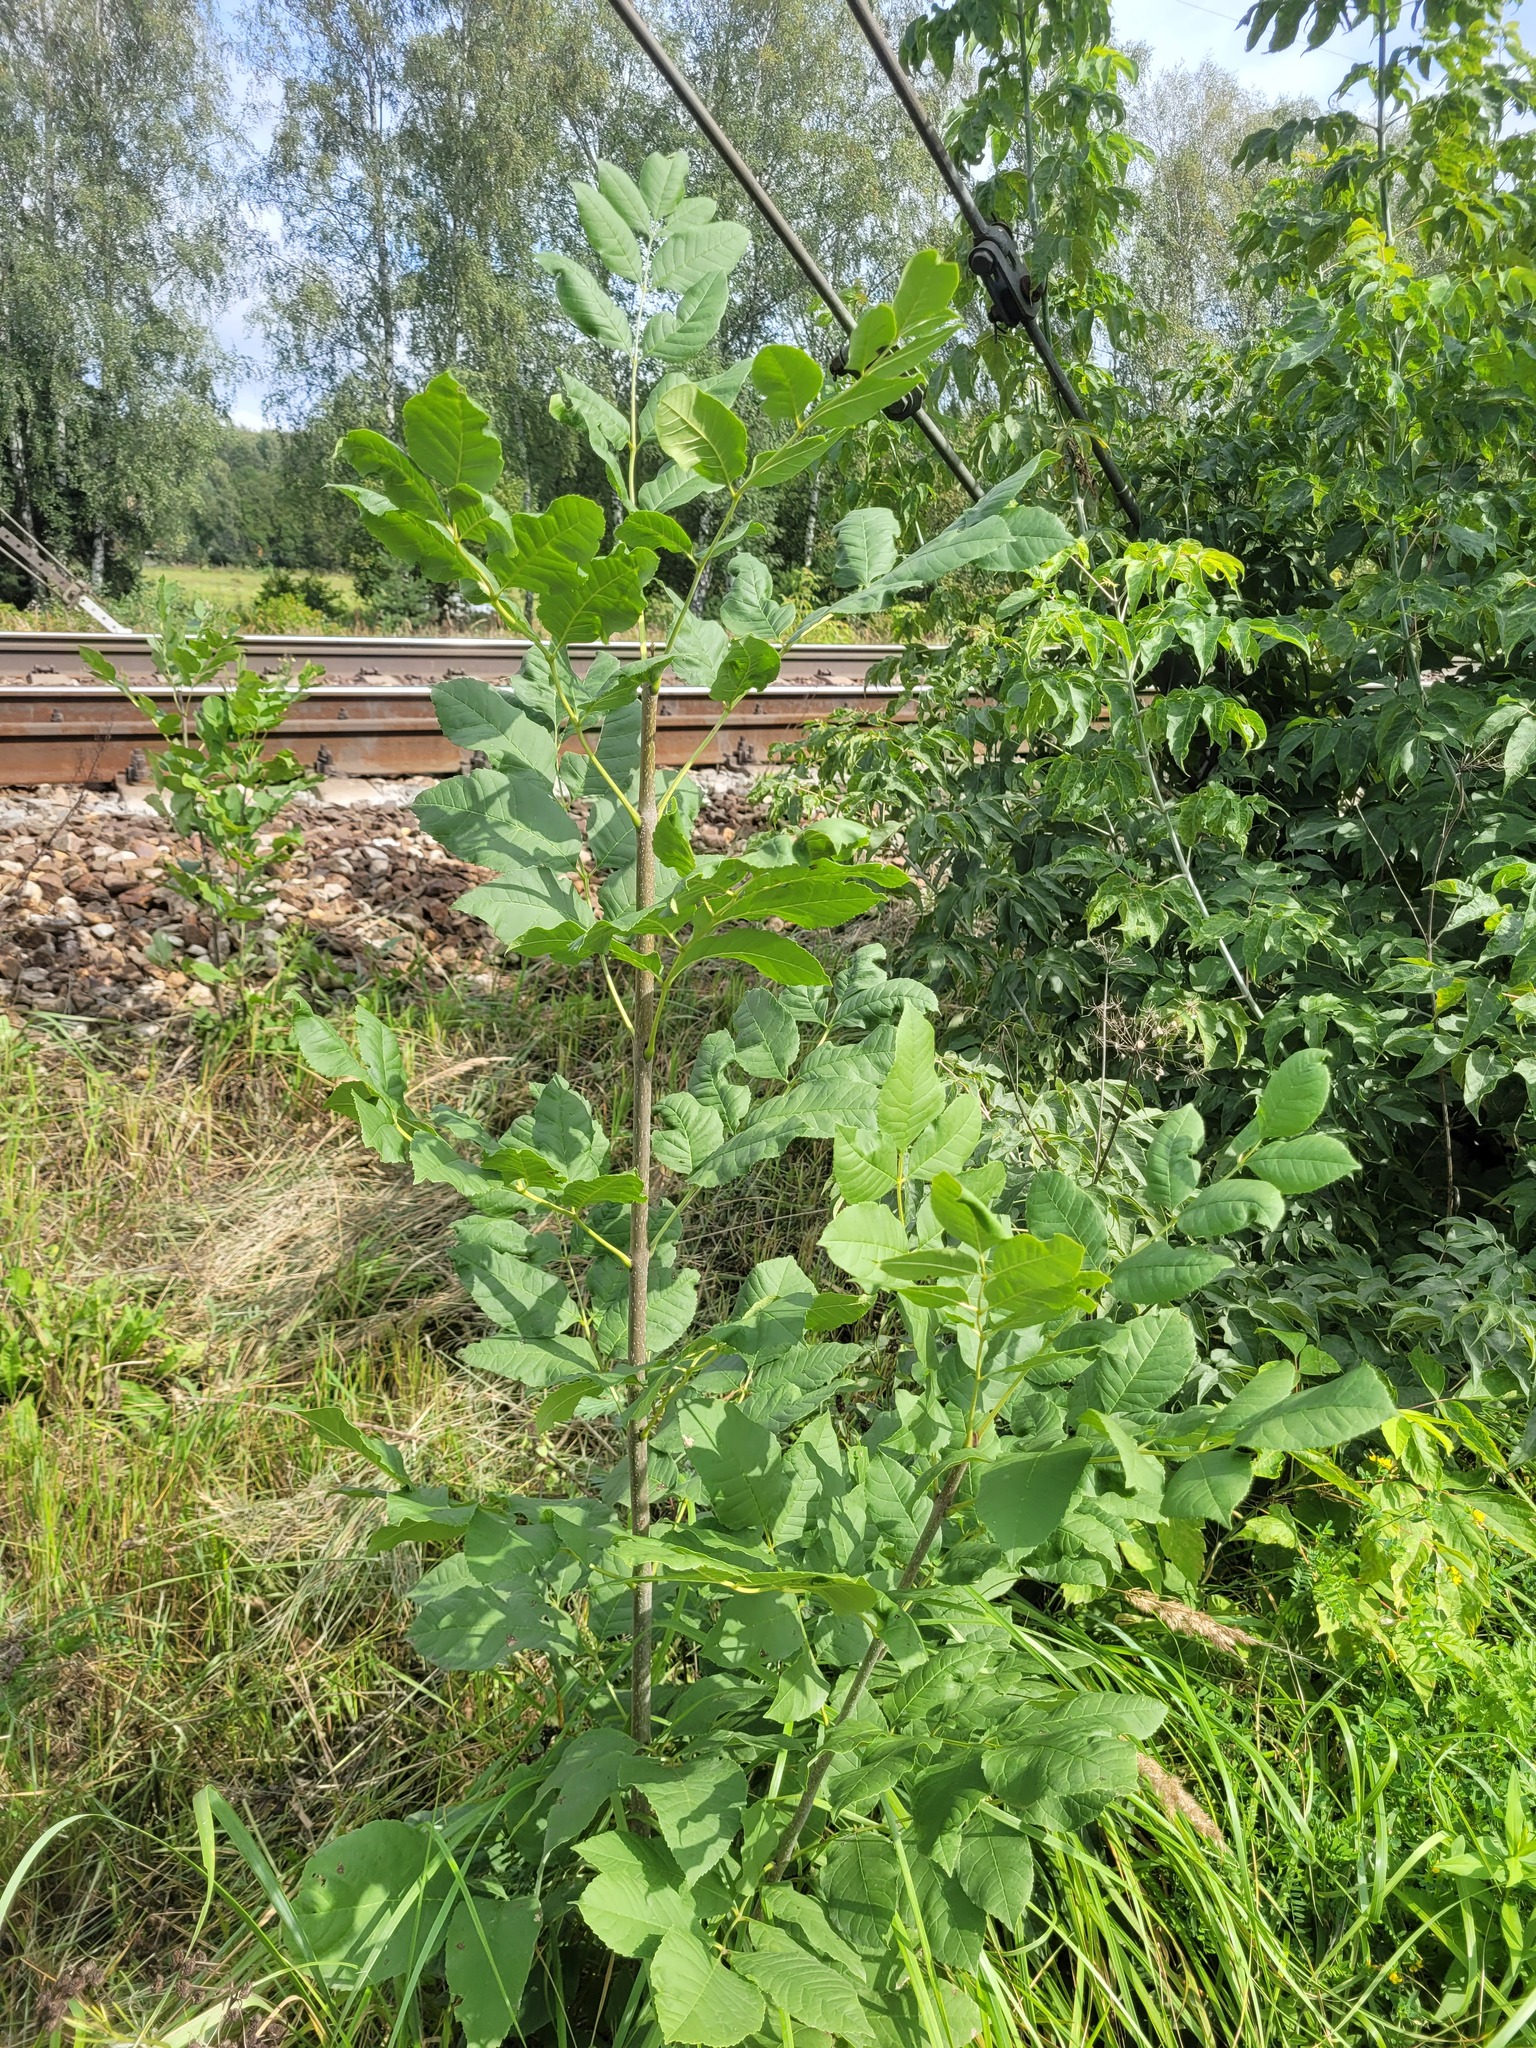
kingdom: Plantae
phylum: Tracheophyta
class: Magnoliopsida
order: Lamiales
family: Oleaceae
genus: Fraxinus
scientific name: Fraxinus pennsylvanica
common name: Green ash
